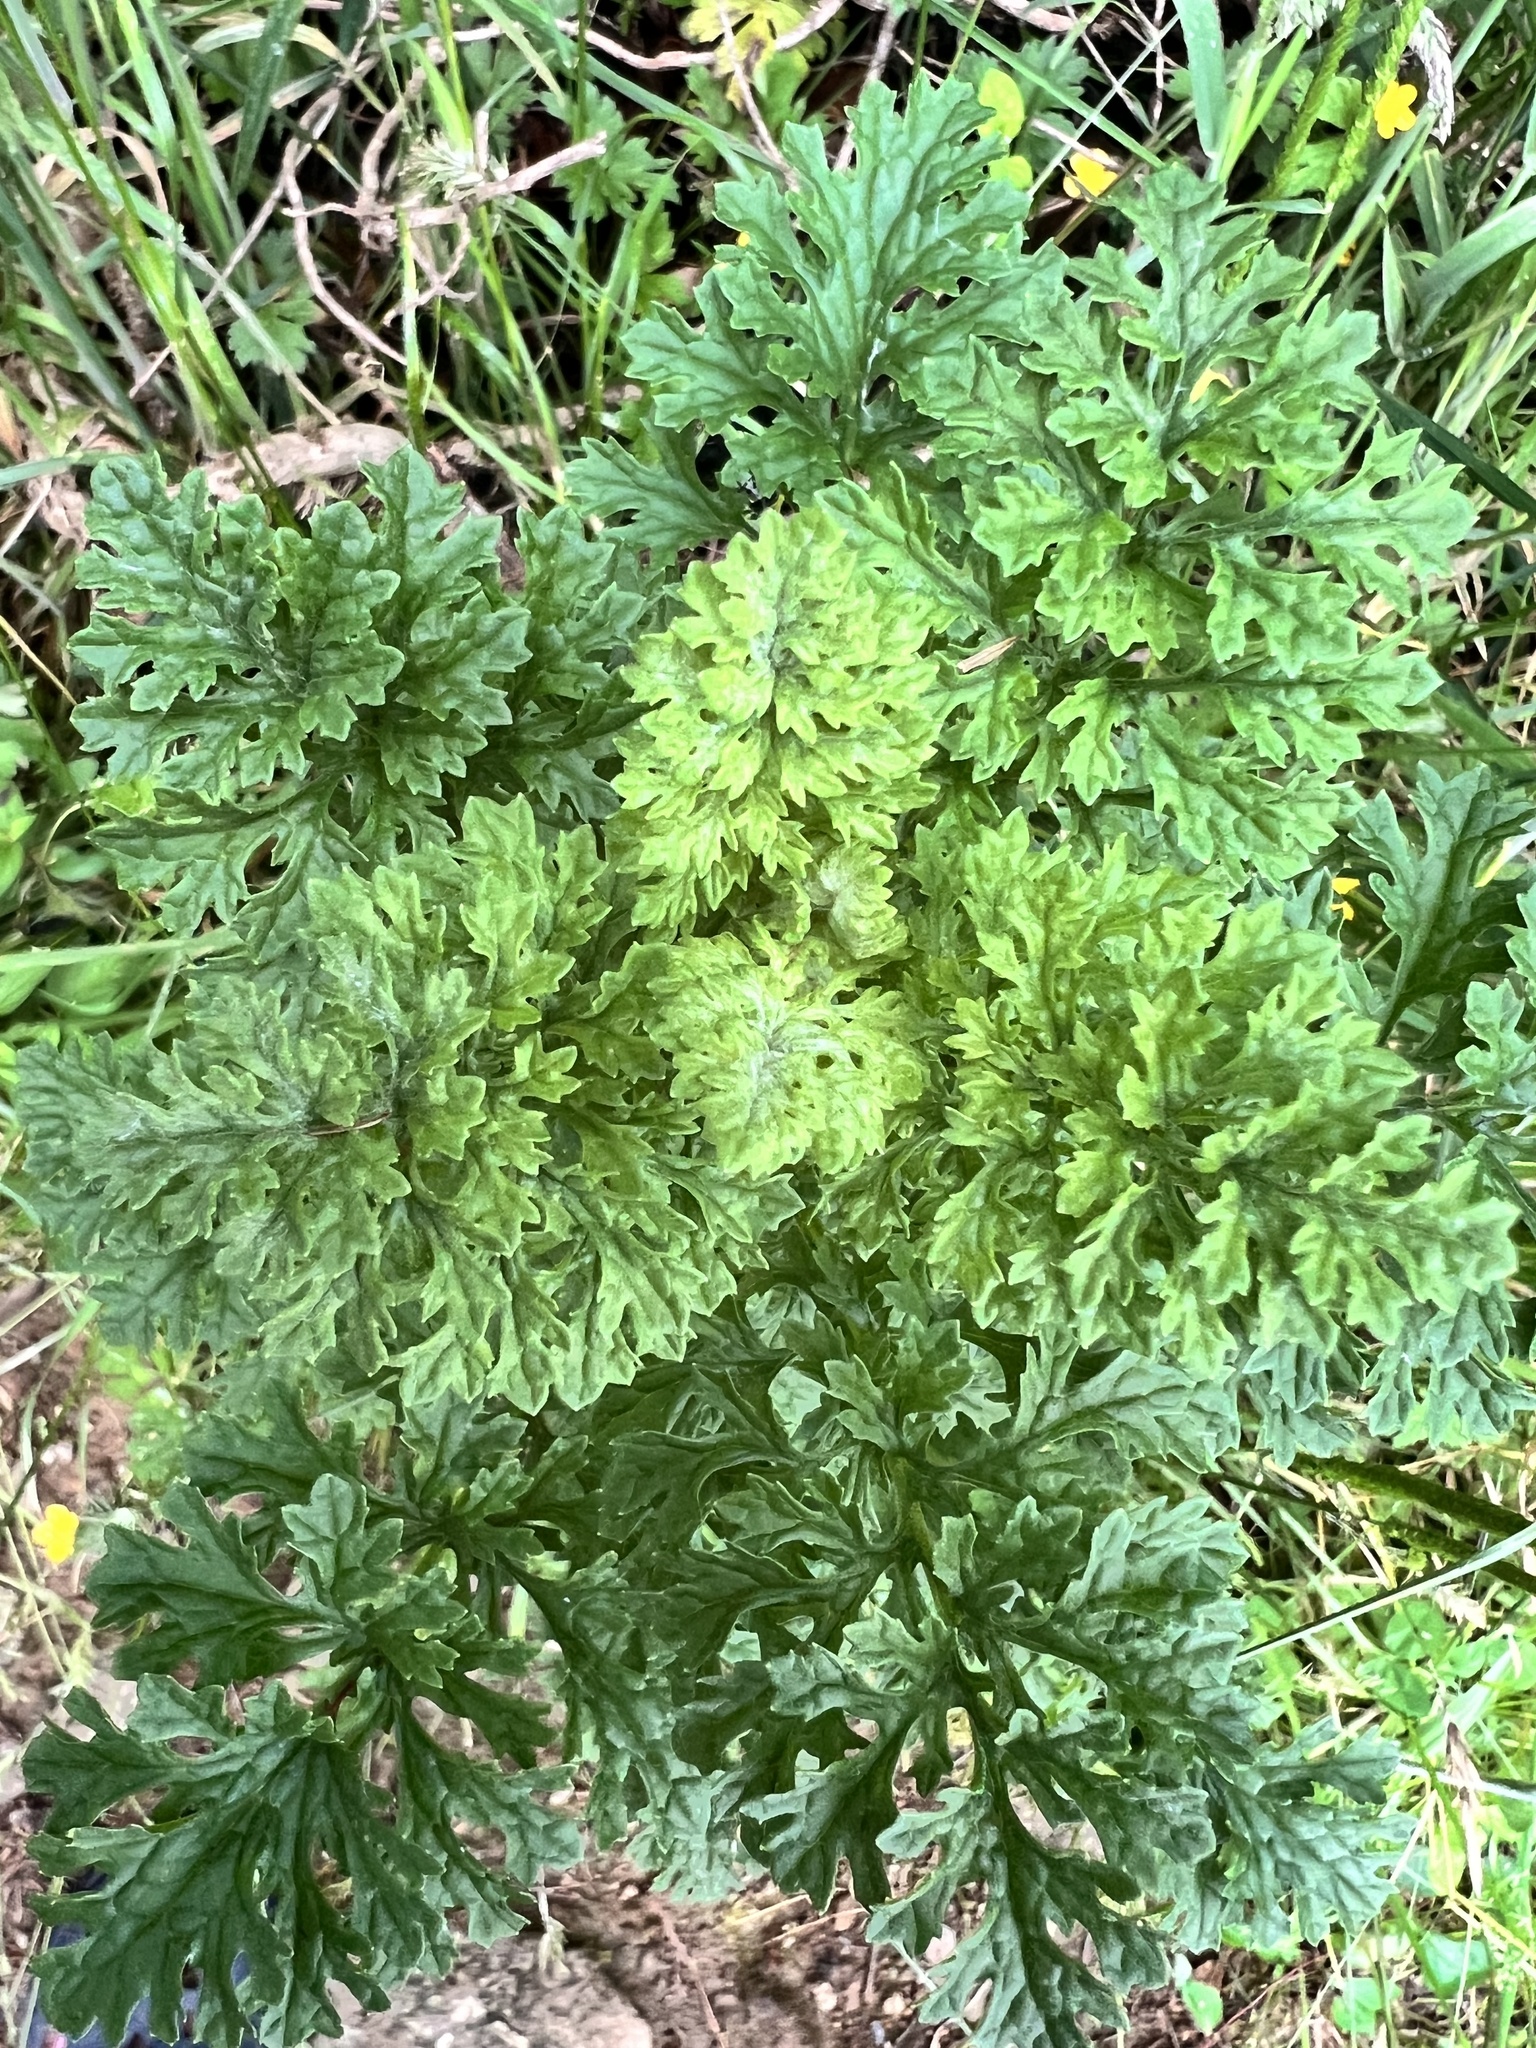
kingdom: Plantae
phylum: Tracheophyta
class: Magnoliopsida
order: Asterales
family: Asteraceae
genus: Jacobaea
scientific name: Jacobaea vulgaris
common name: Stinking willie
